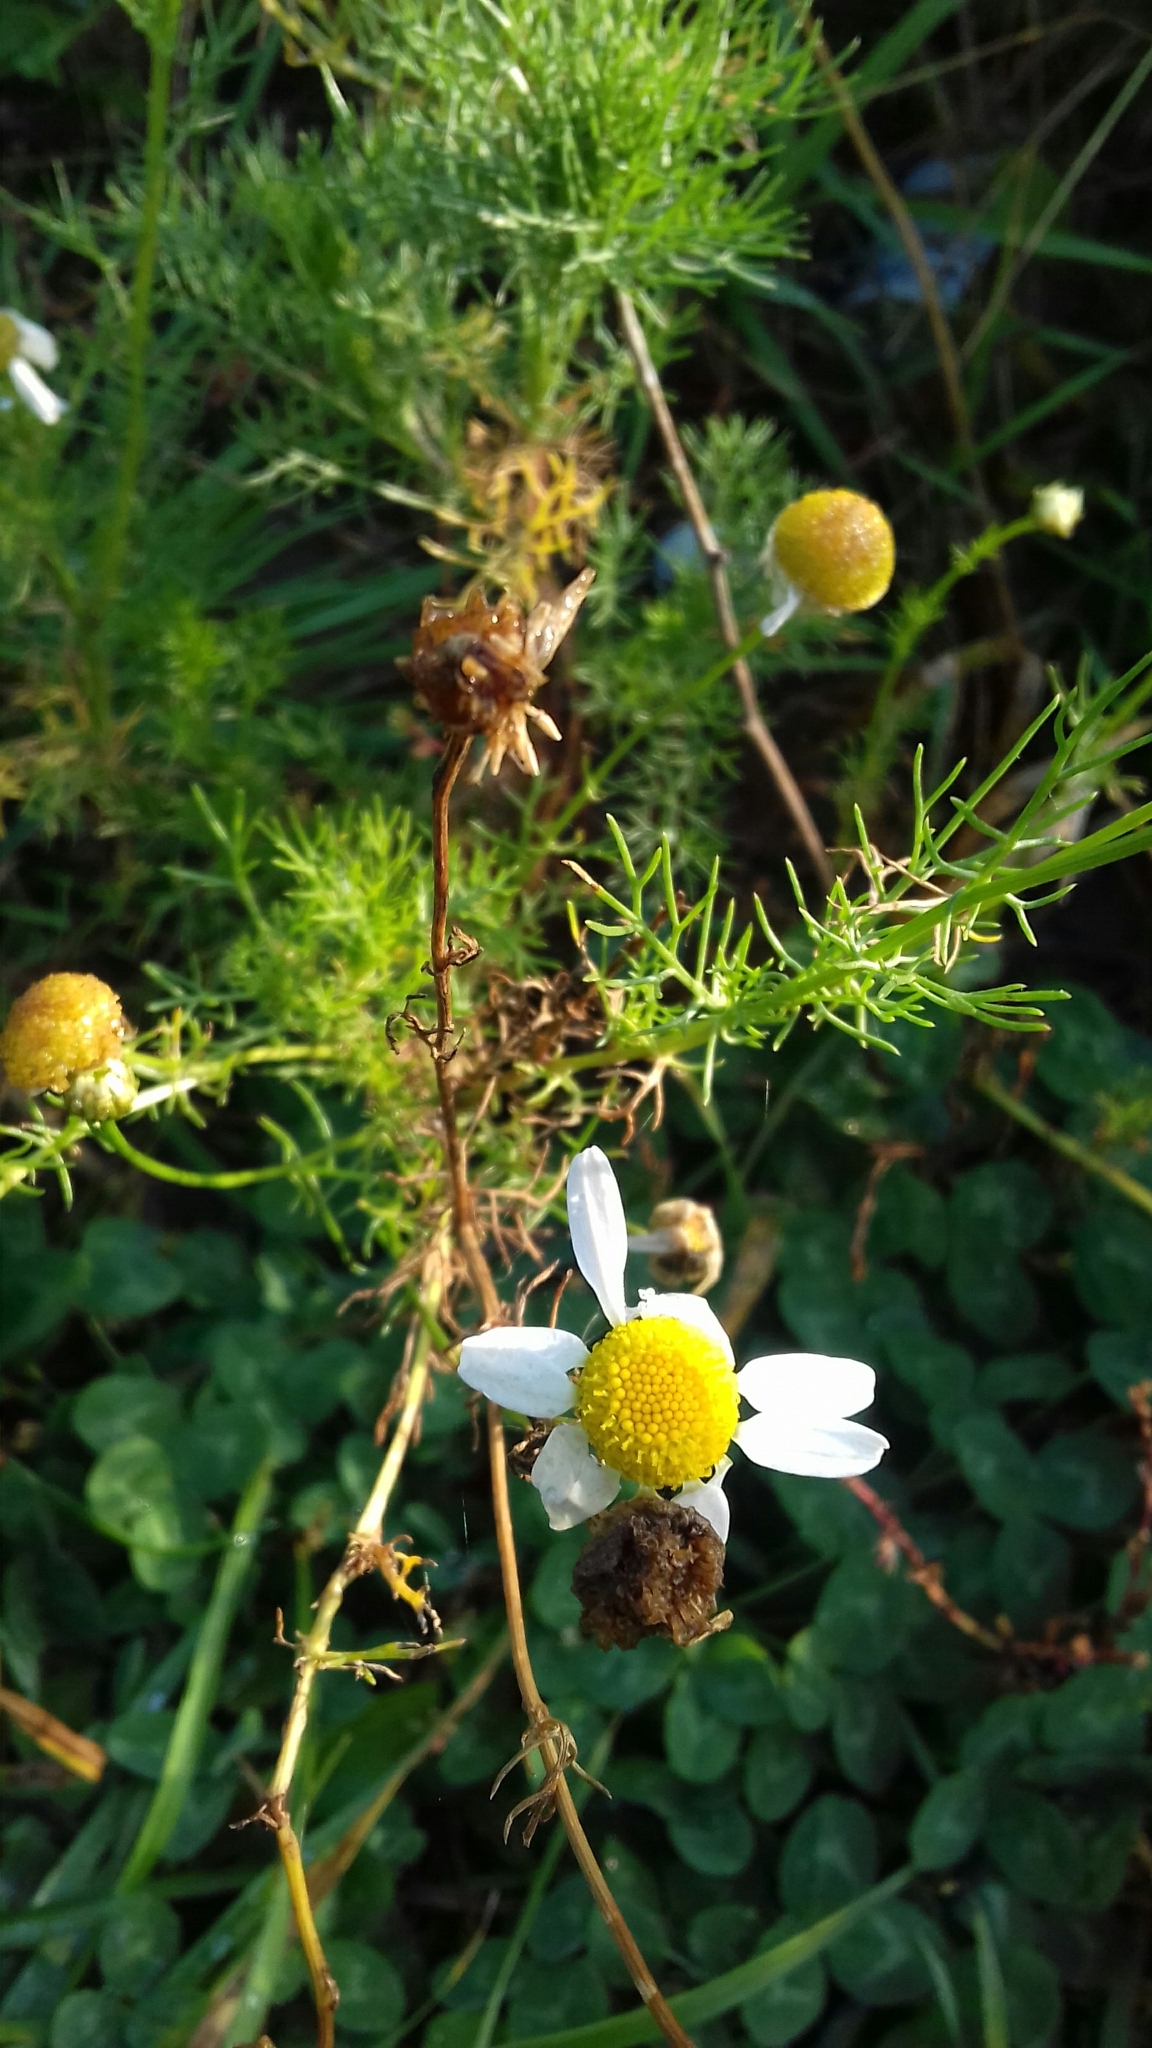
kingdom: Plantae
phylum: Tracheophyta
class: Magnoliopsida
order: Asterales
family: Asteraceae
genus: Tripleurospermum
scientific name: Tripleurospermum inodorum
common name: Scentless mayweed
